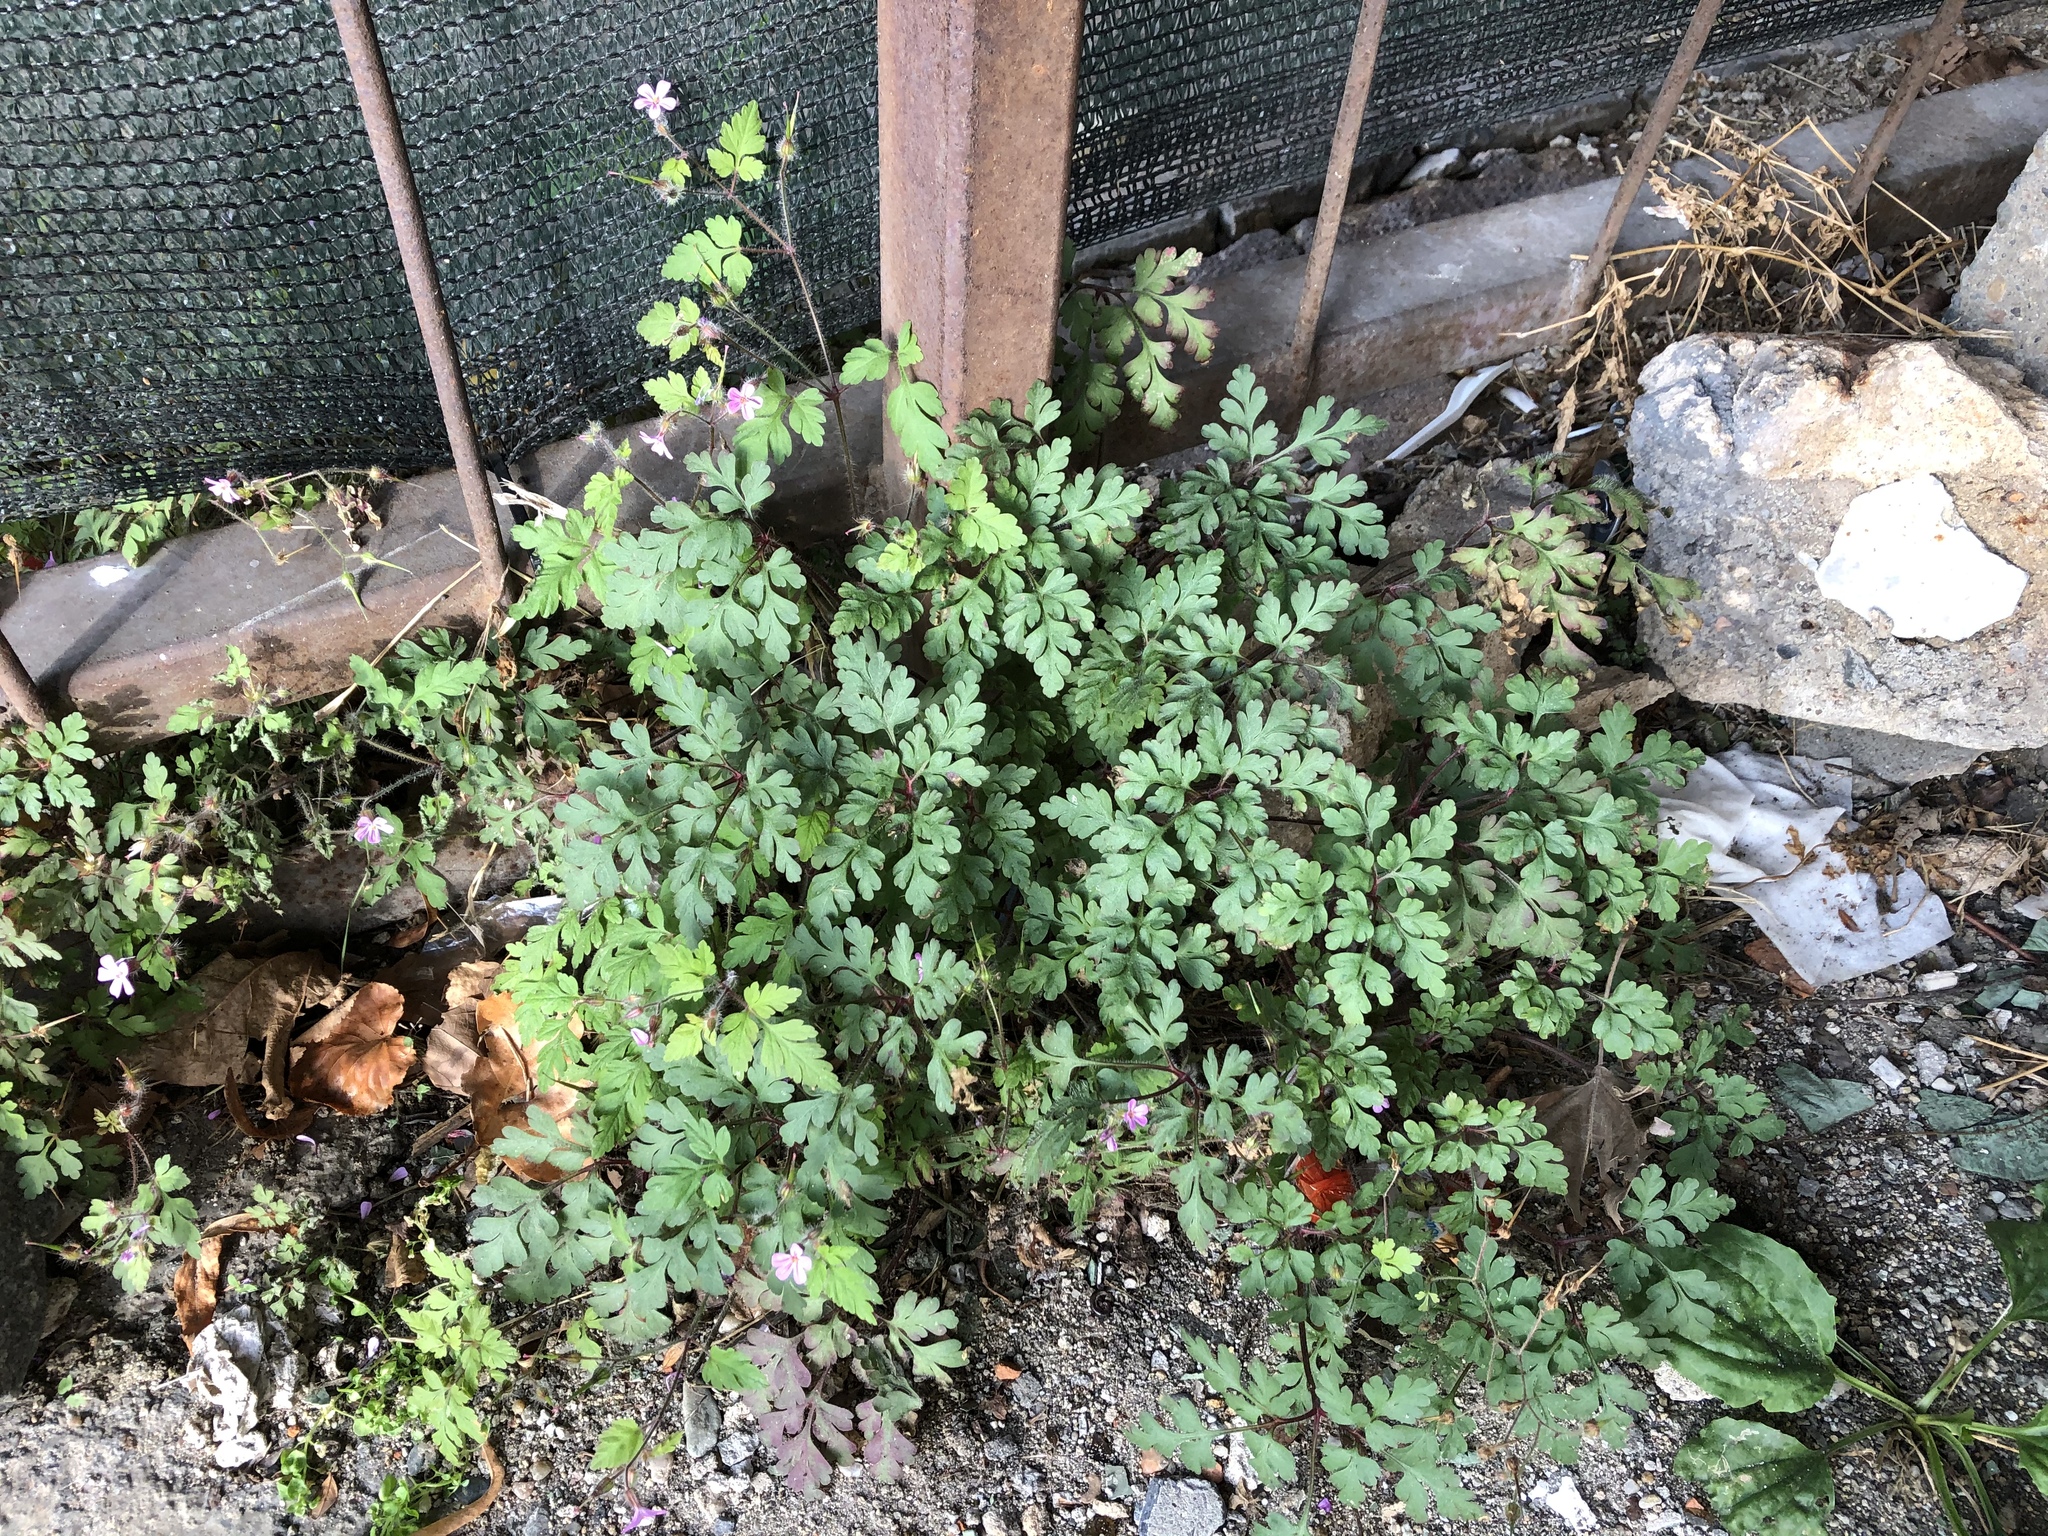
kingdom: Plantae
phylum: Tracheophyta
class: Magnoliopsida
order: Geraniales
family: Geraniaceae
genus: Geranium
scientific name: Geranium robertianum
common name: Herb-robert
